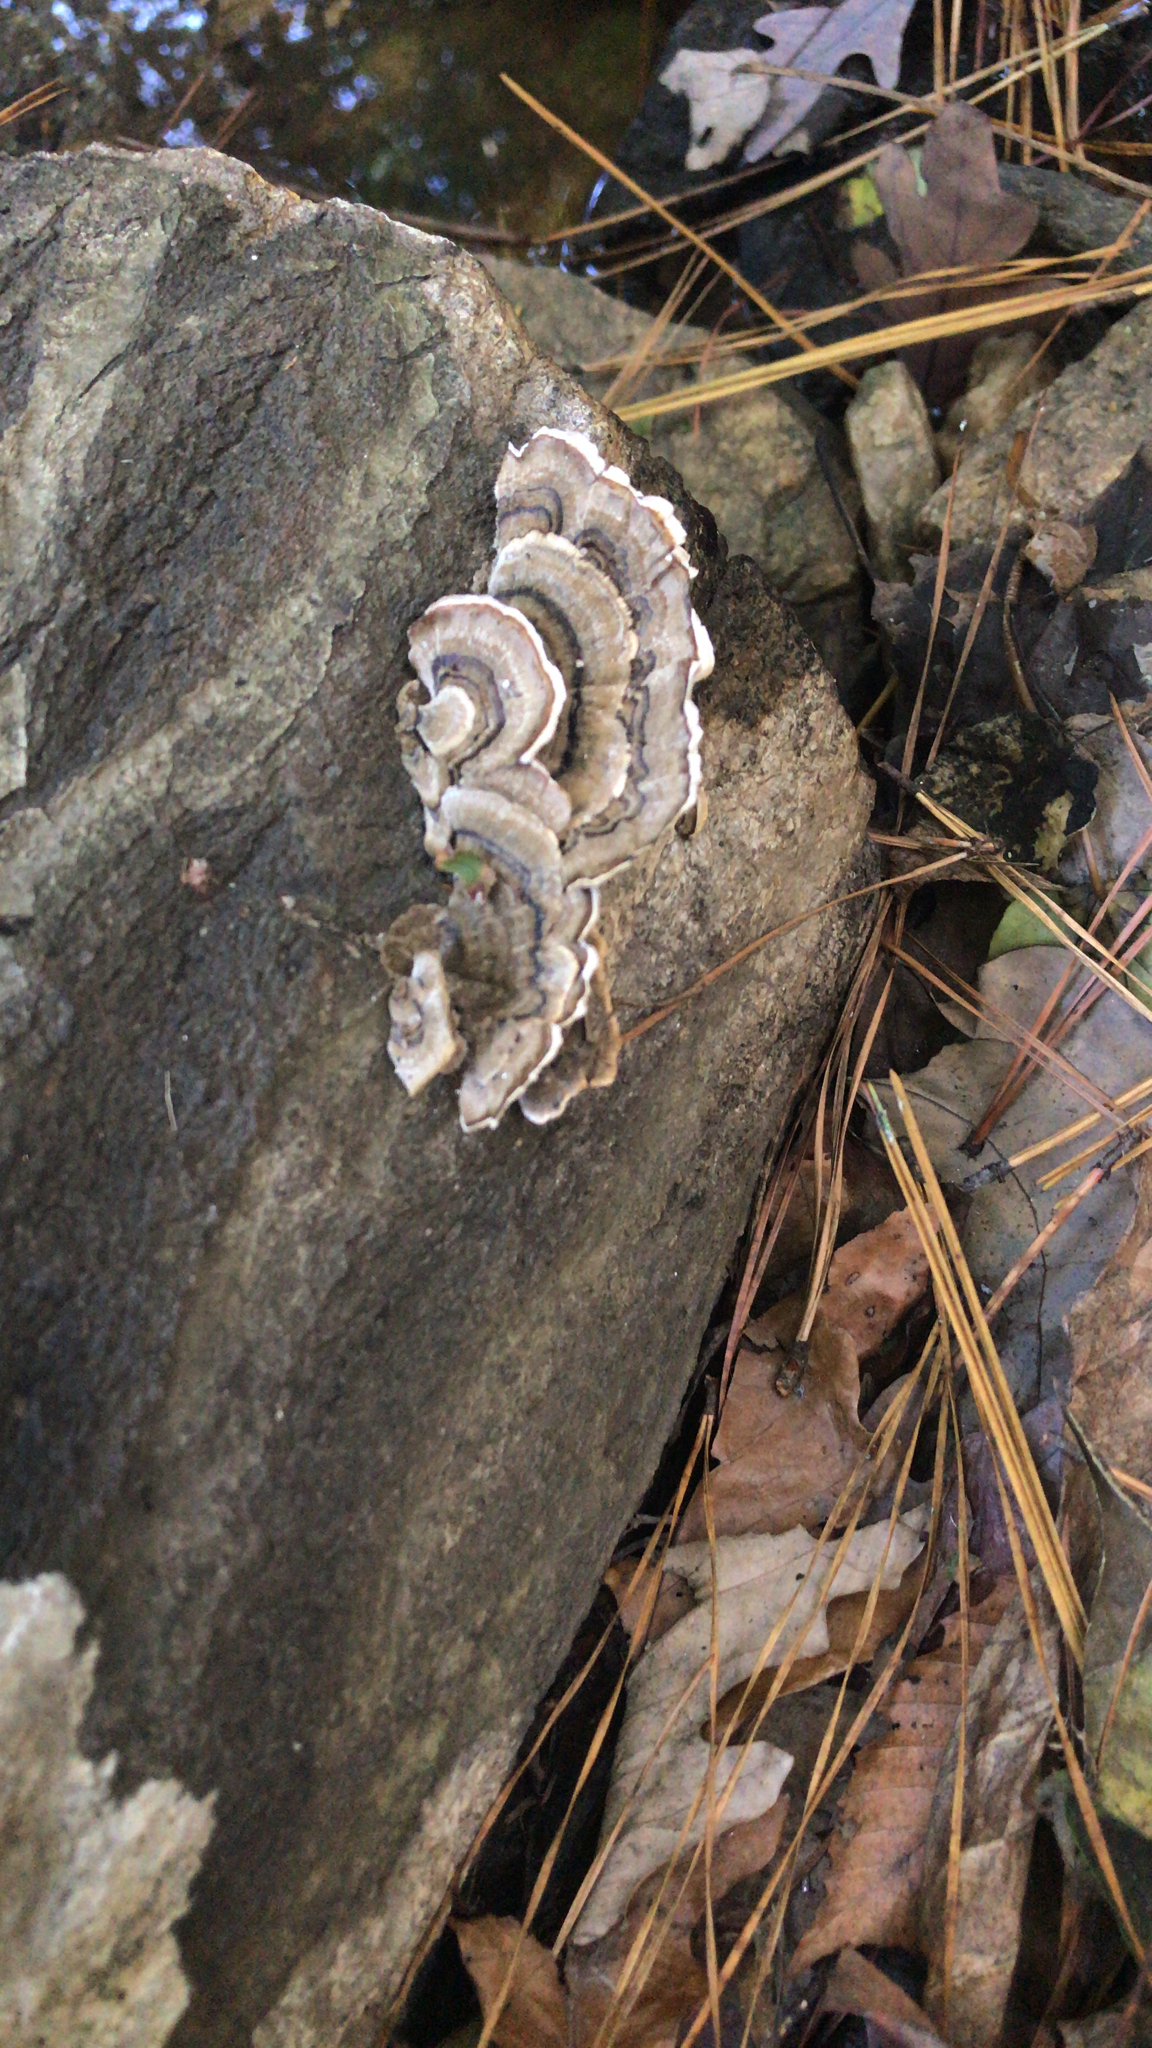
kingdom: Fungi
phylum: Basidiomycota
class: Agaricomycetes
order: Polyporales
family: Polyporaceae
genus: Trametes
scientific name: Trametes versicolor
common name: Turkeytail
